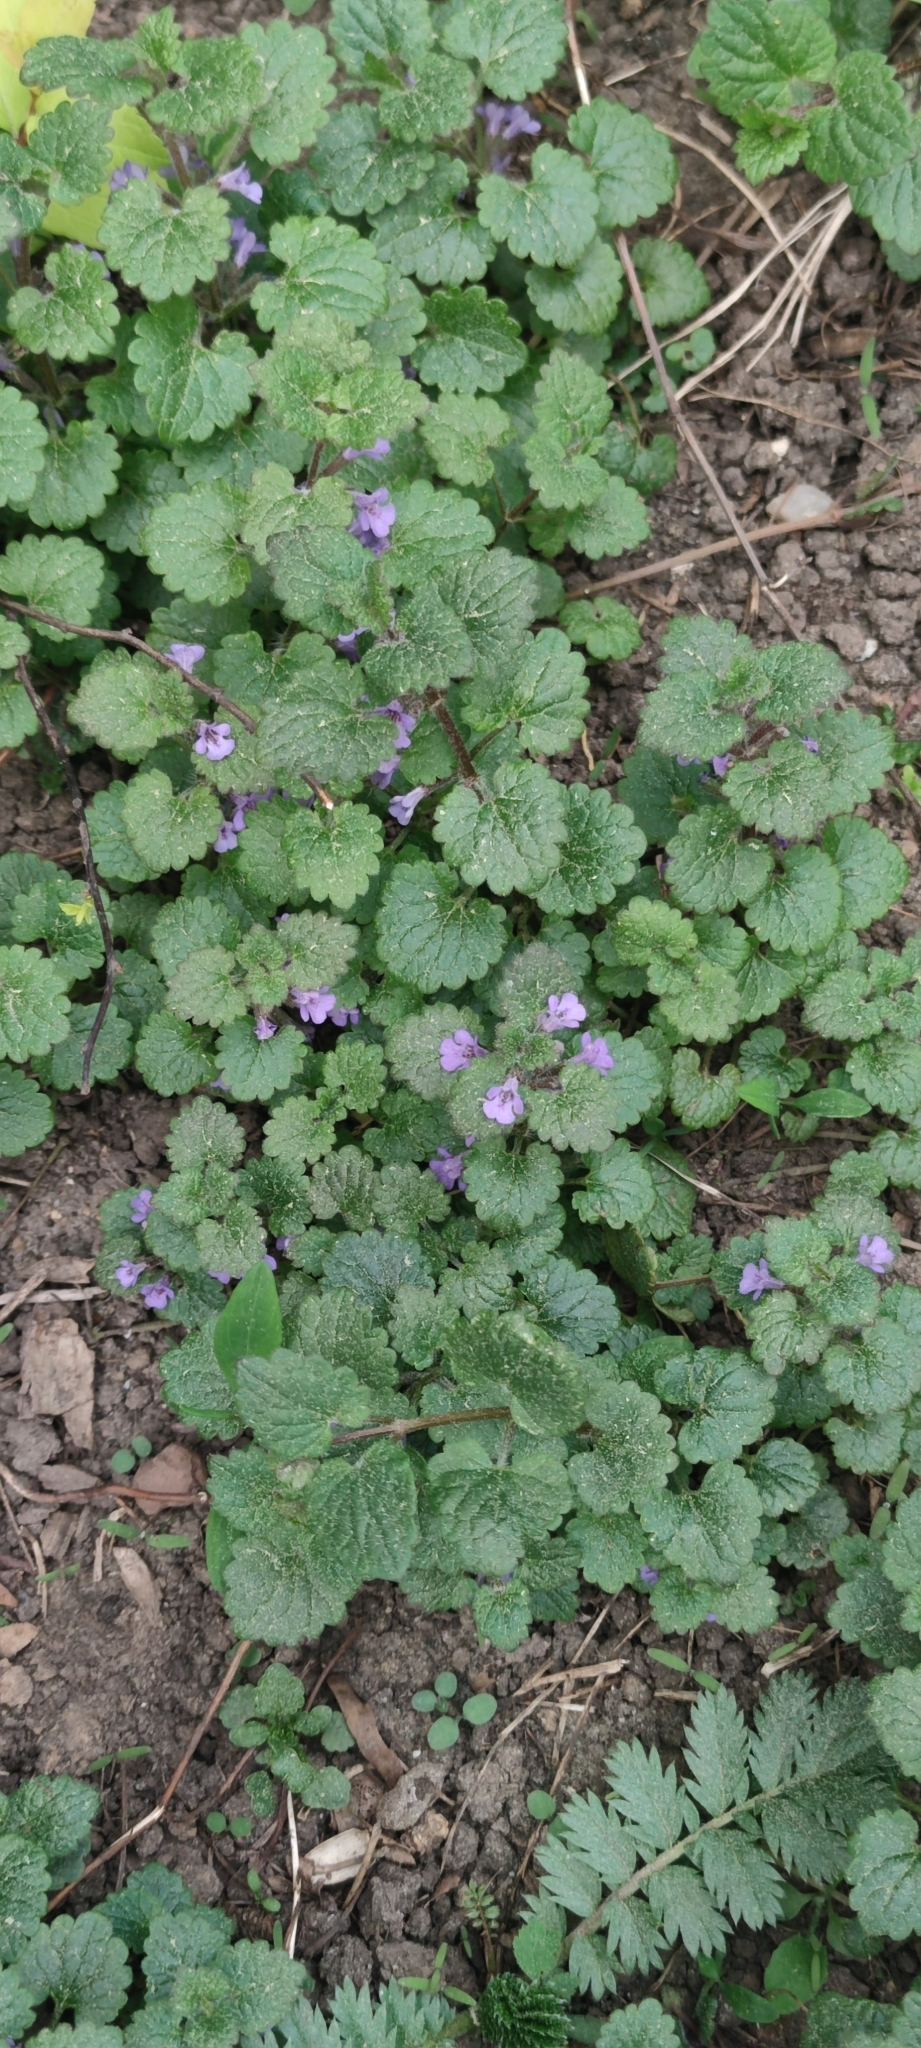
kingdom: Plantae
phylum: Tracheophyta
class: Magnoliopsida
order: Lamiales
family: Lamiaceae
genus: Glechoma
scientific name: Glechoma hederacea
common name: Ground ivy
